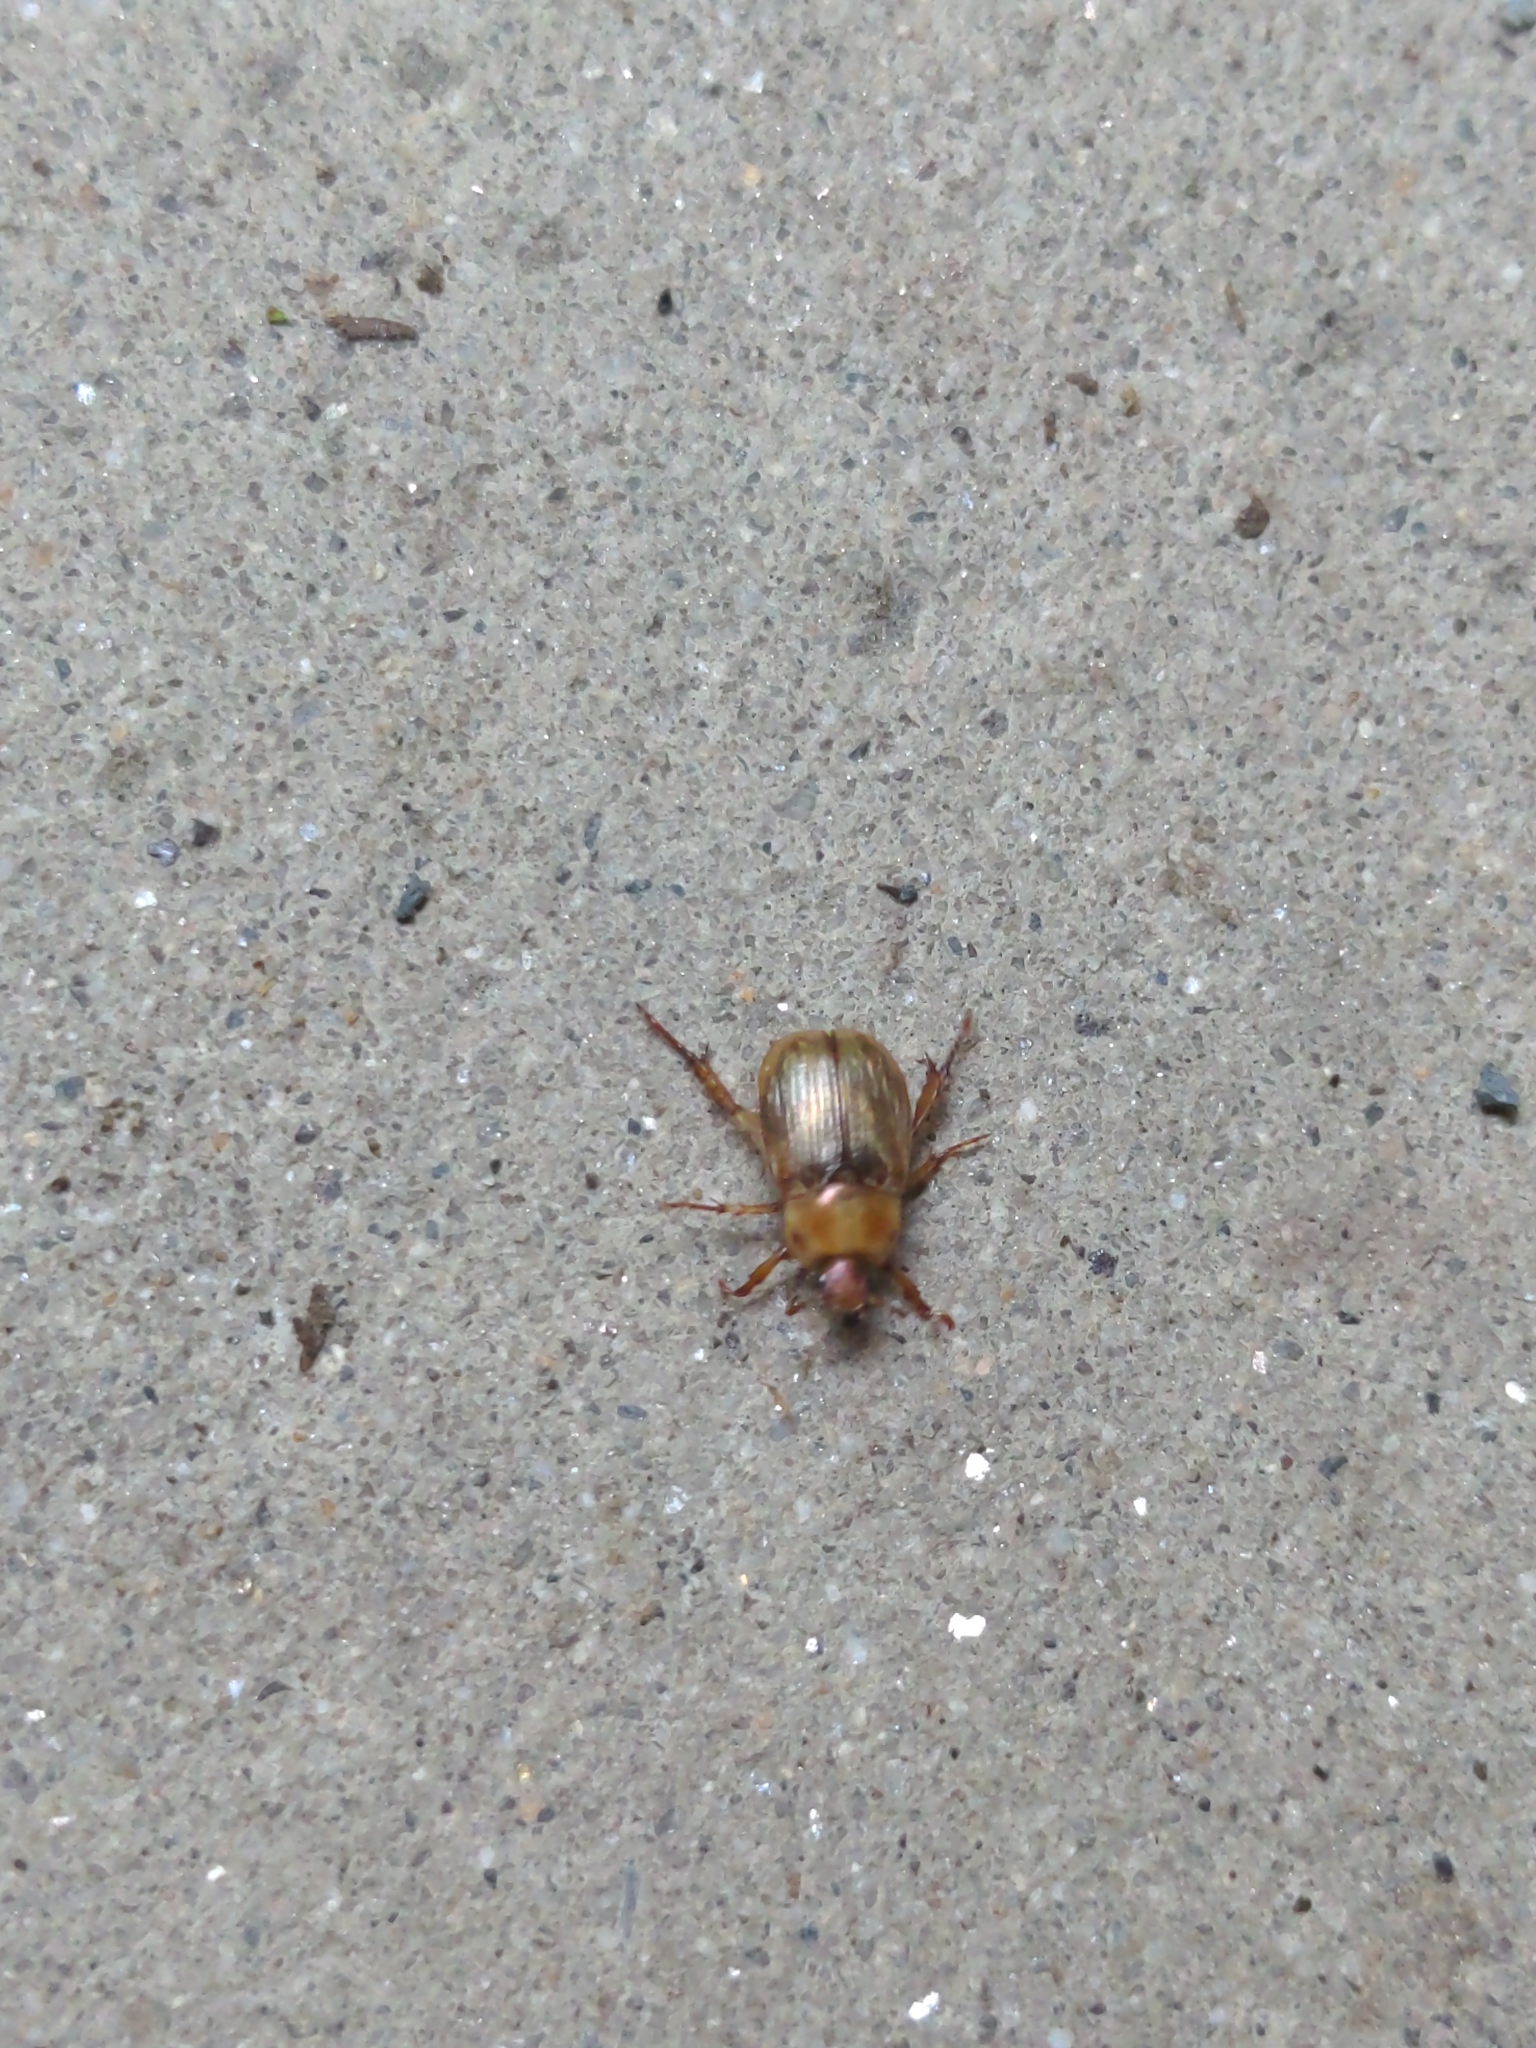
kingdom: Animalia
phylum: Arthropoda
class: Insecta
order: Coleoptera
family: Scarabaeidae
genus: Exomala
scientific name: Exomala orientalis
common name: Oriental beetle
